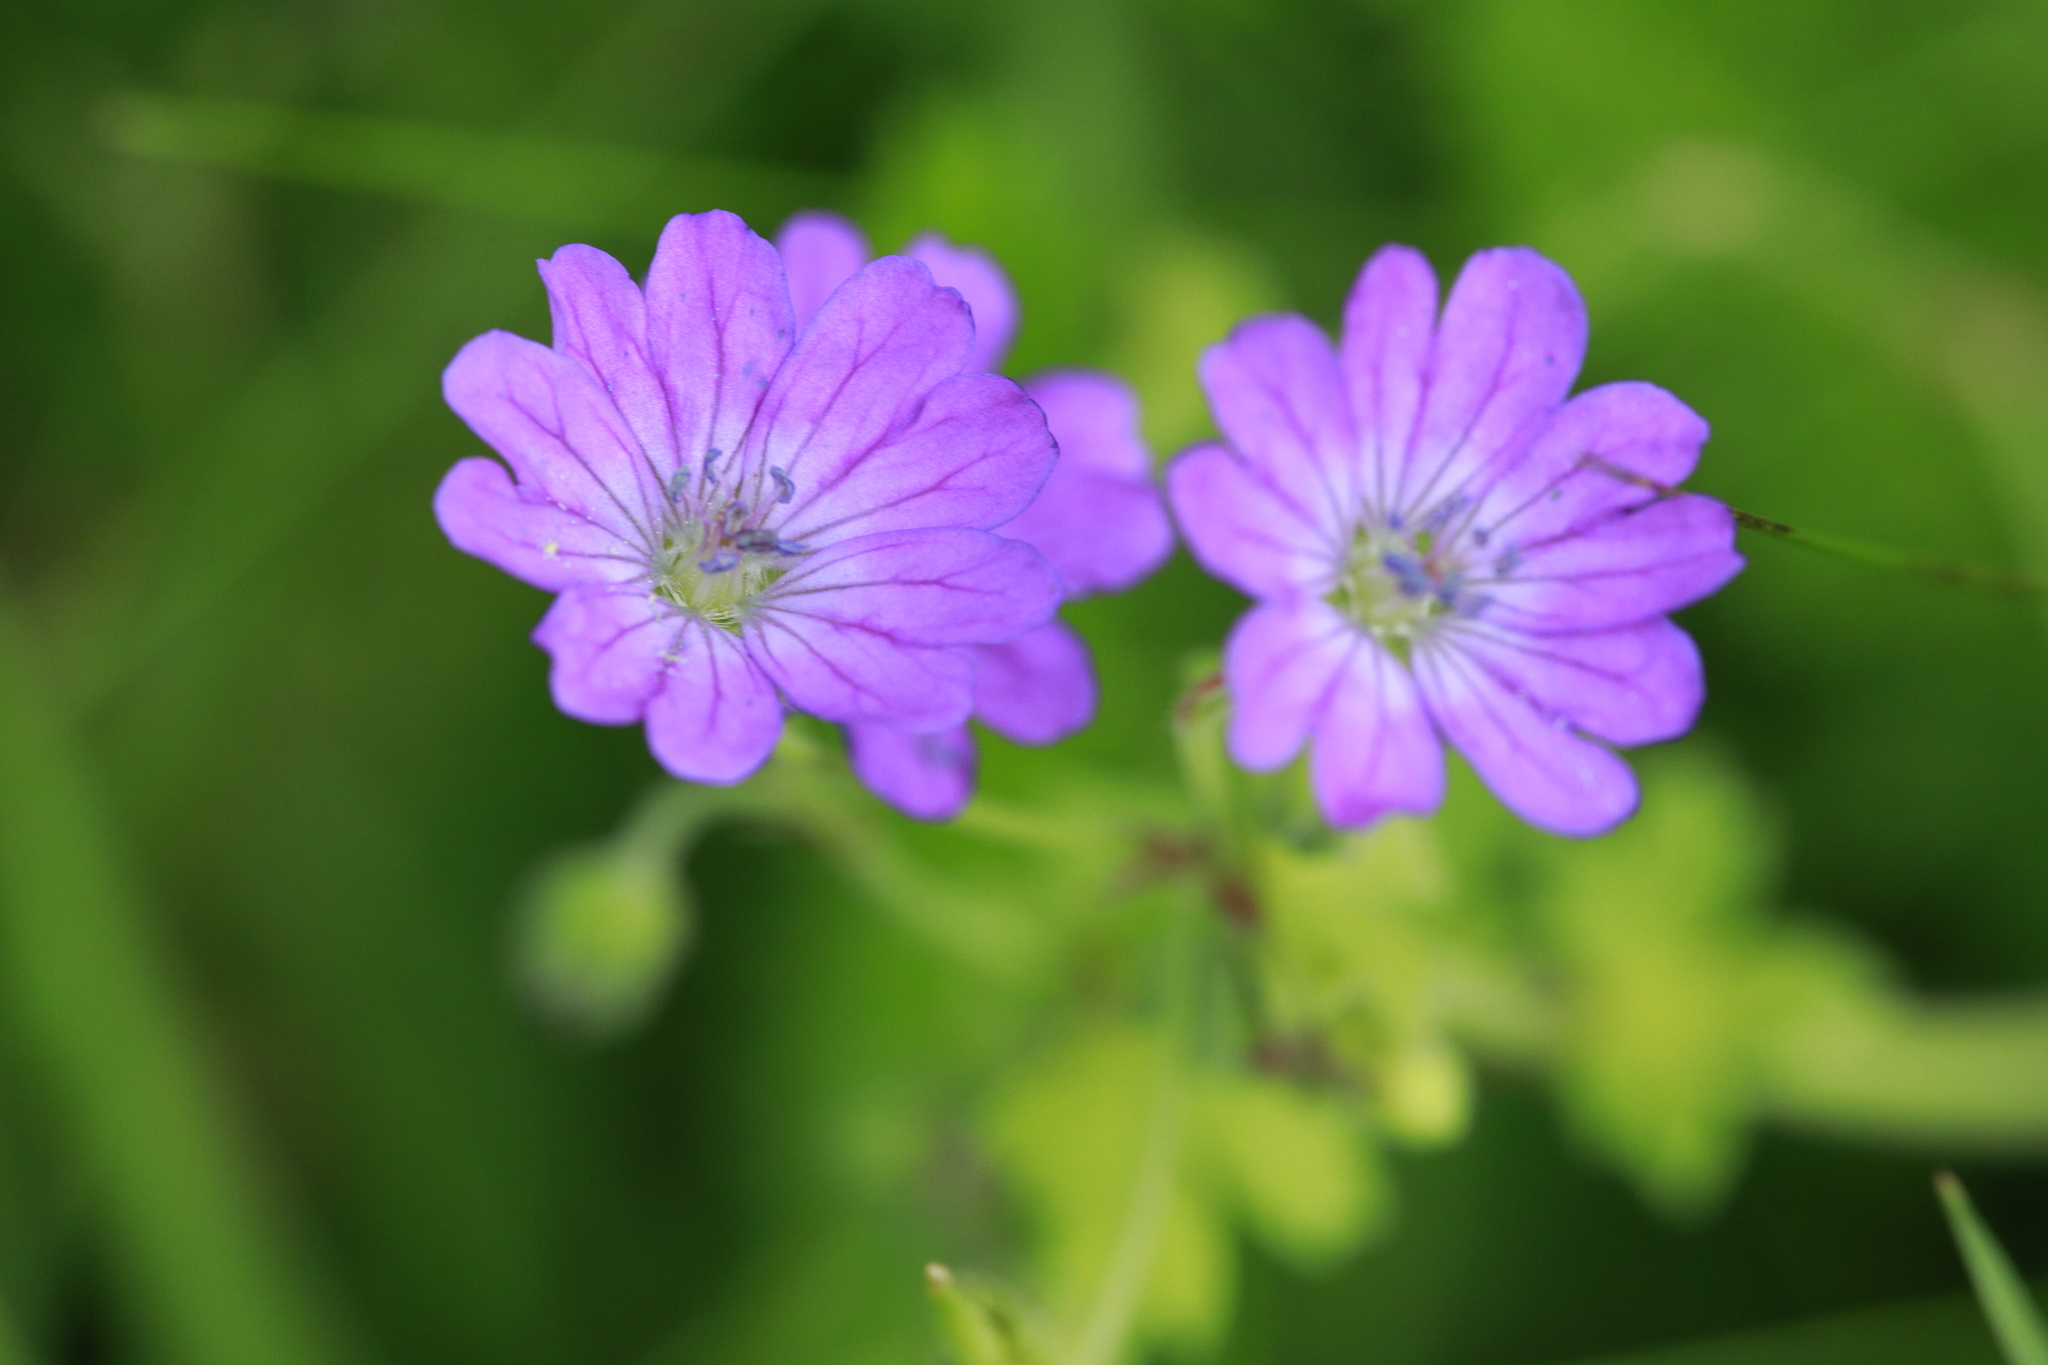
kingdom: Plantae
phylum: Tracheophyta
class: Magnoliopsida
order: Geraniales
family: Geraniaceae
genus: Geranium
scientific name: Geranium pyrenaicum
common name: Hedgerow crane's-bill
